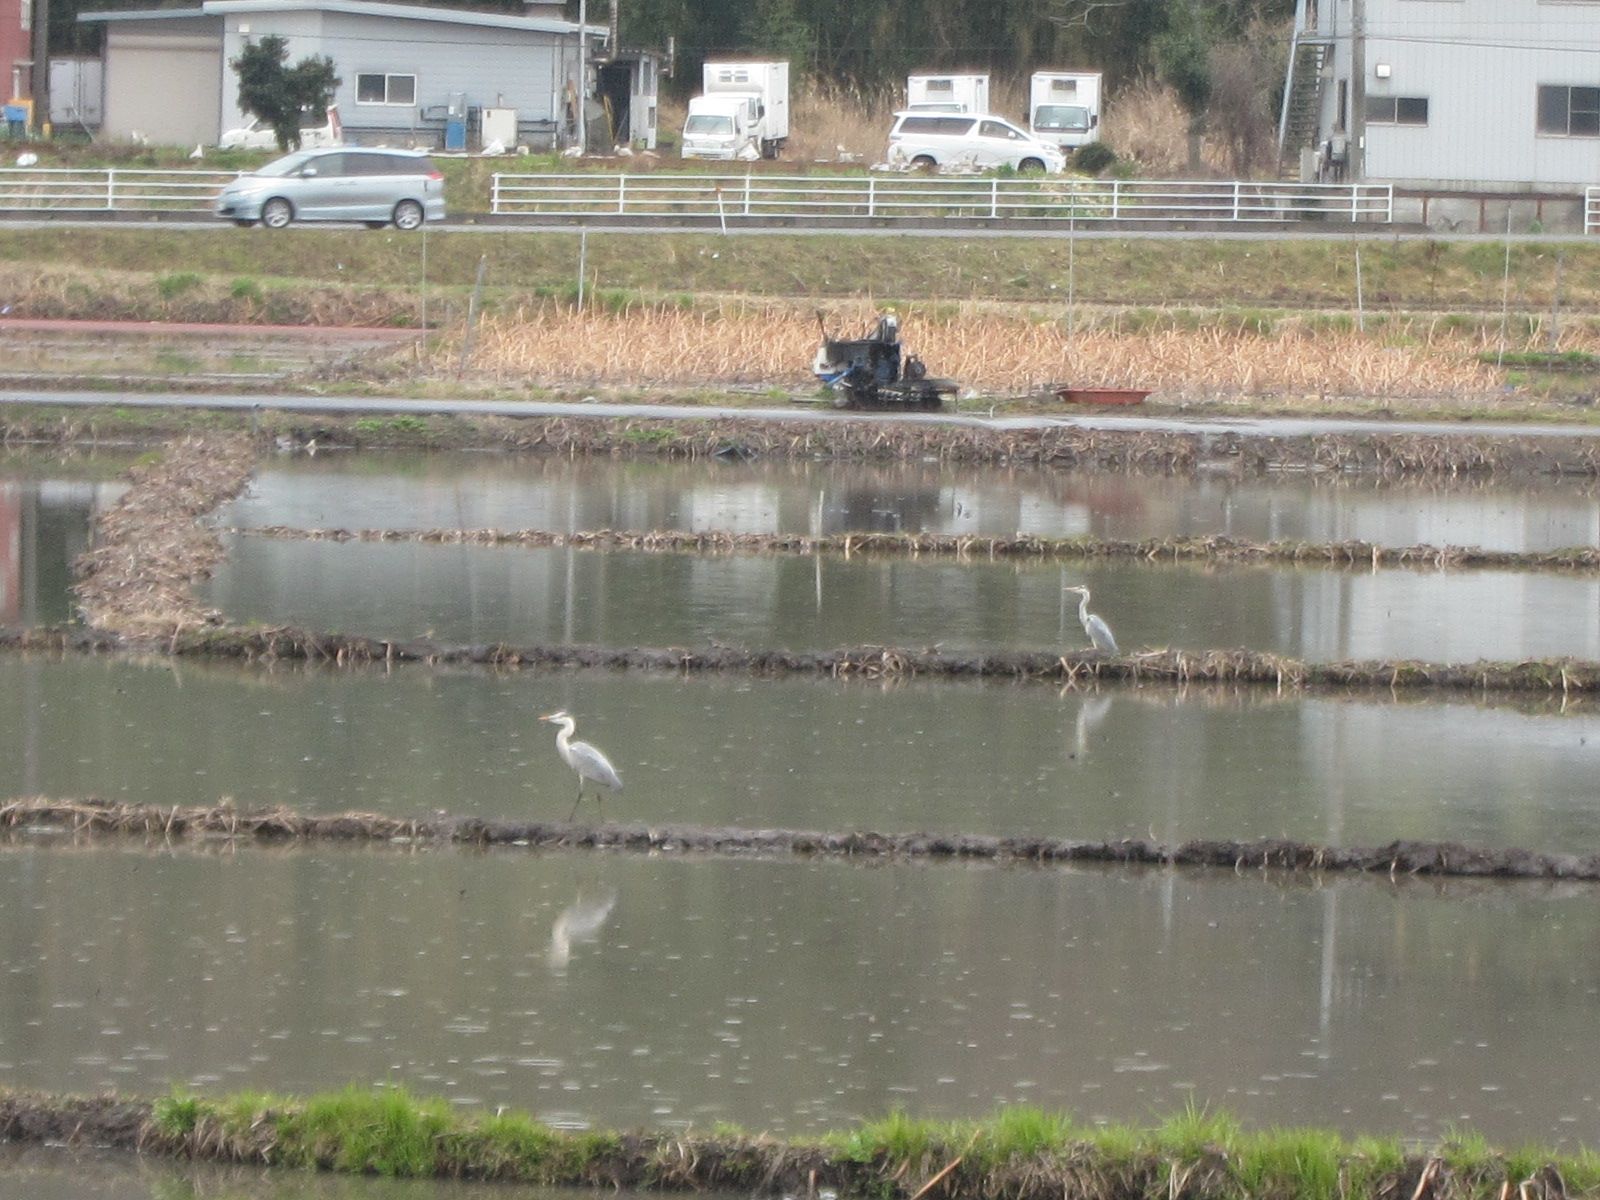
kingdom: Animalia
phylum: Chordata
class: Aves
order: Pelecaniformes
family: Ardeidae
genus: Ardea
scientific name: Ardea cinerea
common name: Grey heron
